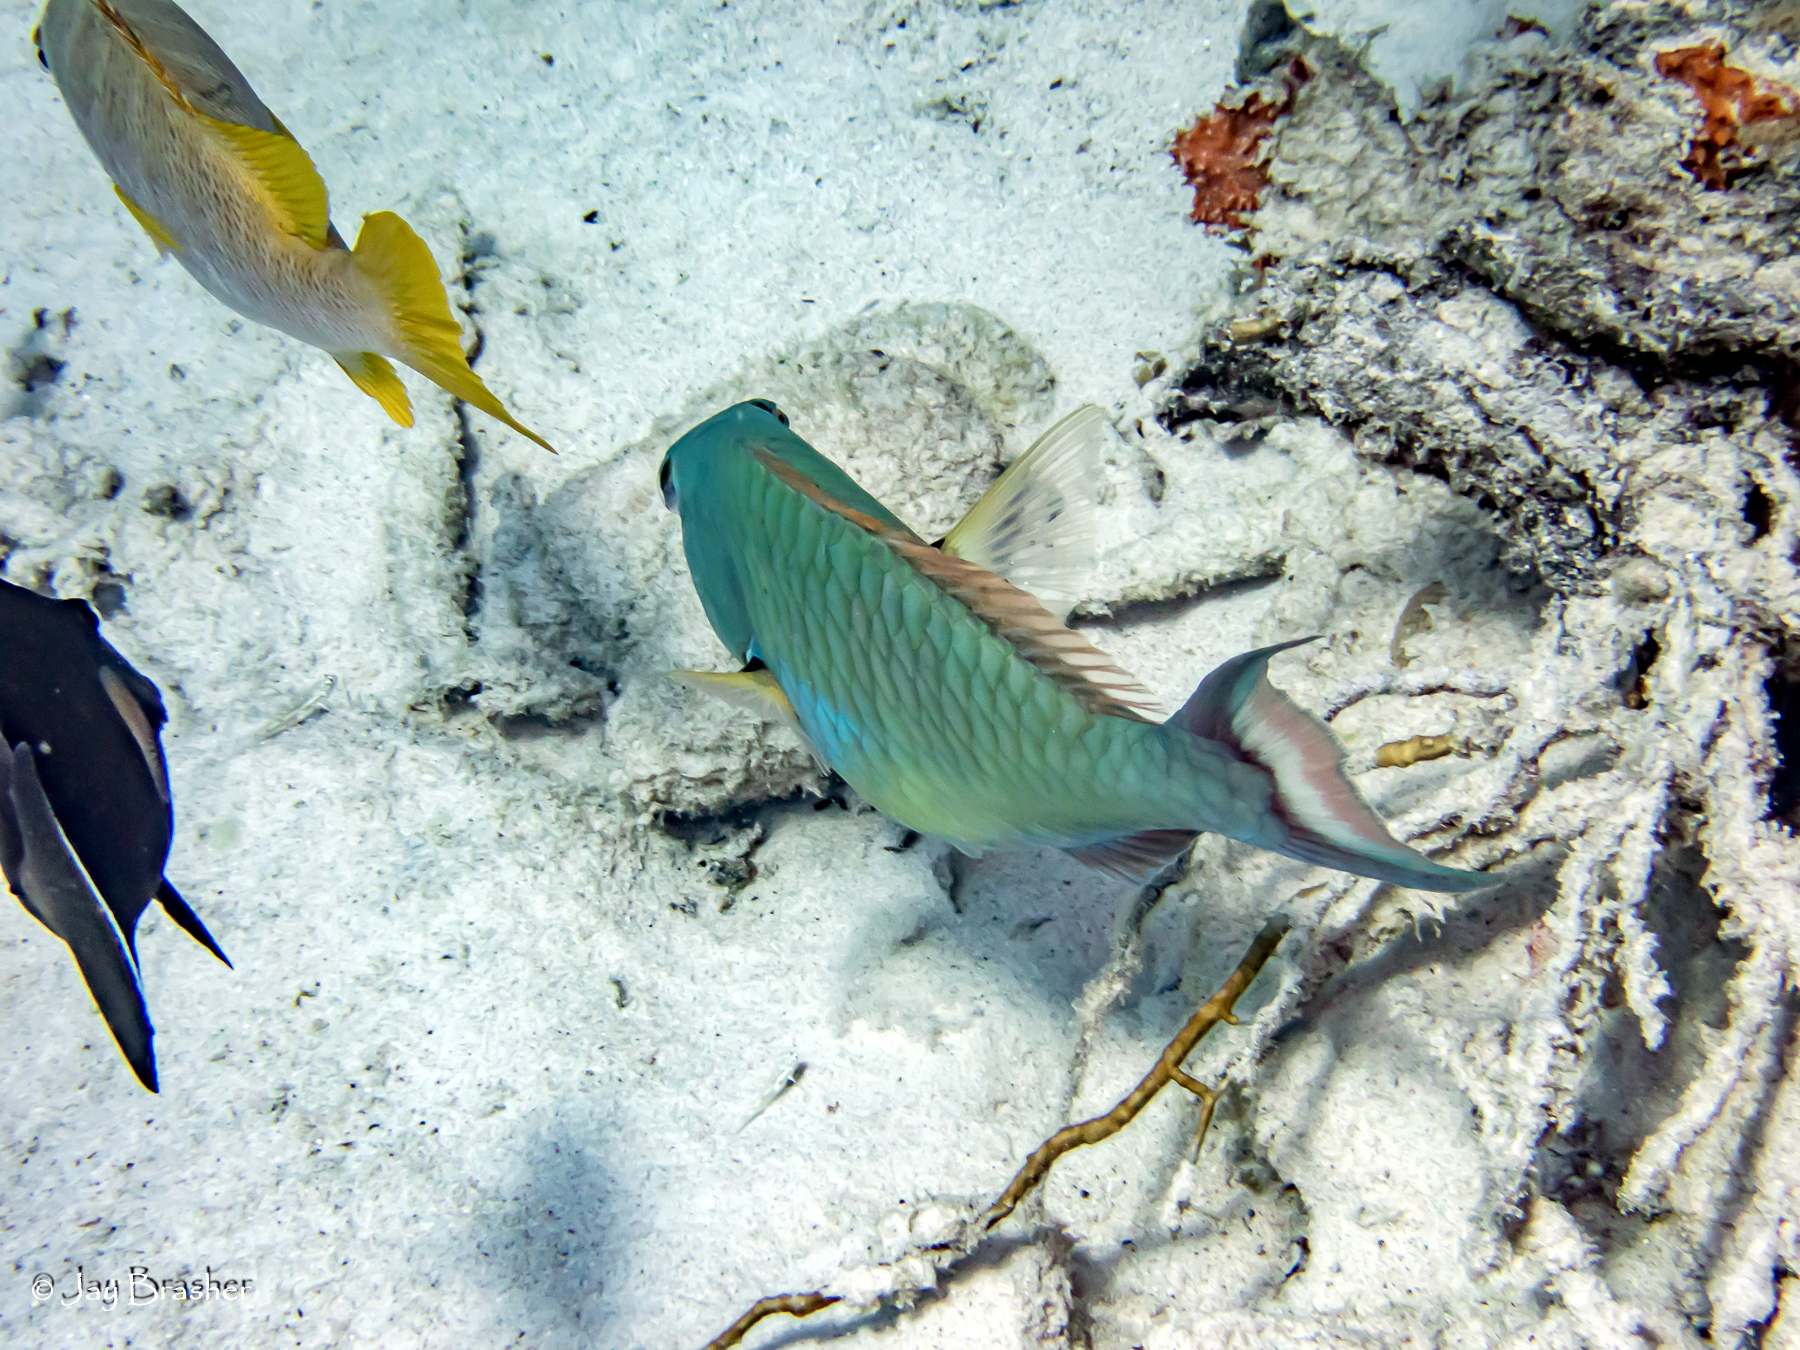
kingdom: Animalia
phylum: Chordata
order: Perciformes
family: Scaridae
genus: Sparisoma
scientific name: Sparisoma chrysopterum
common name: Redtail parrotfish
